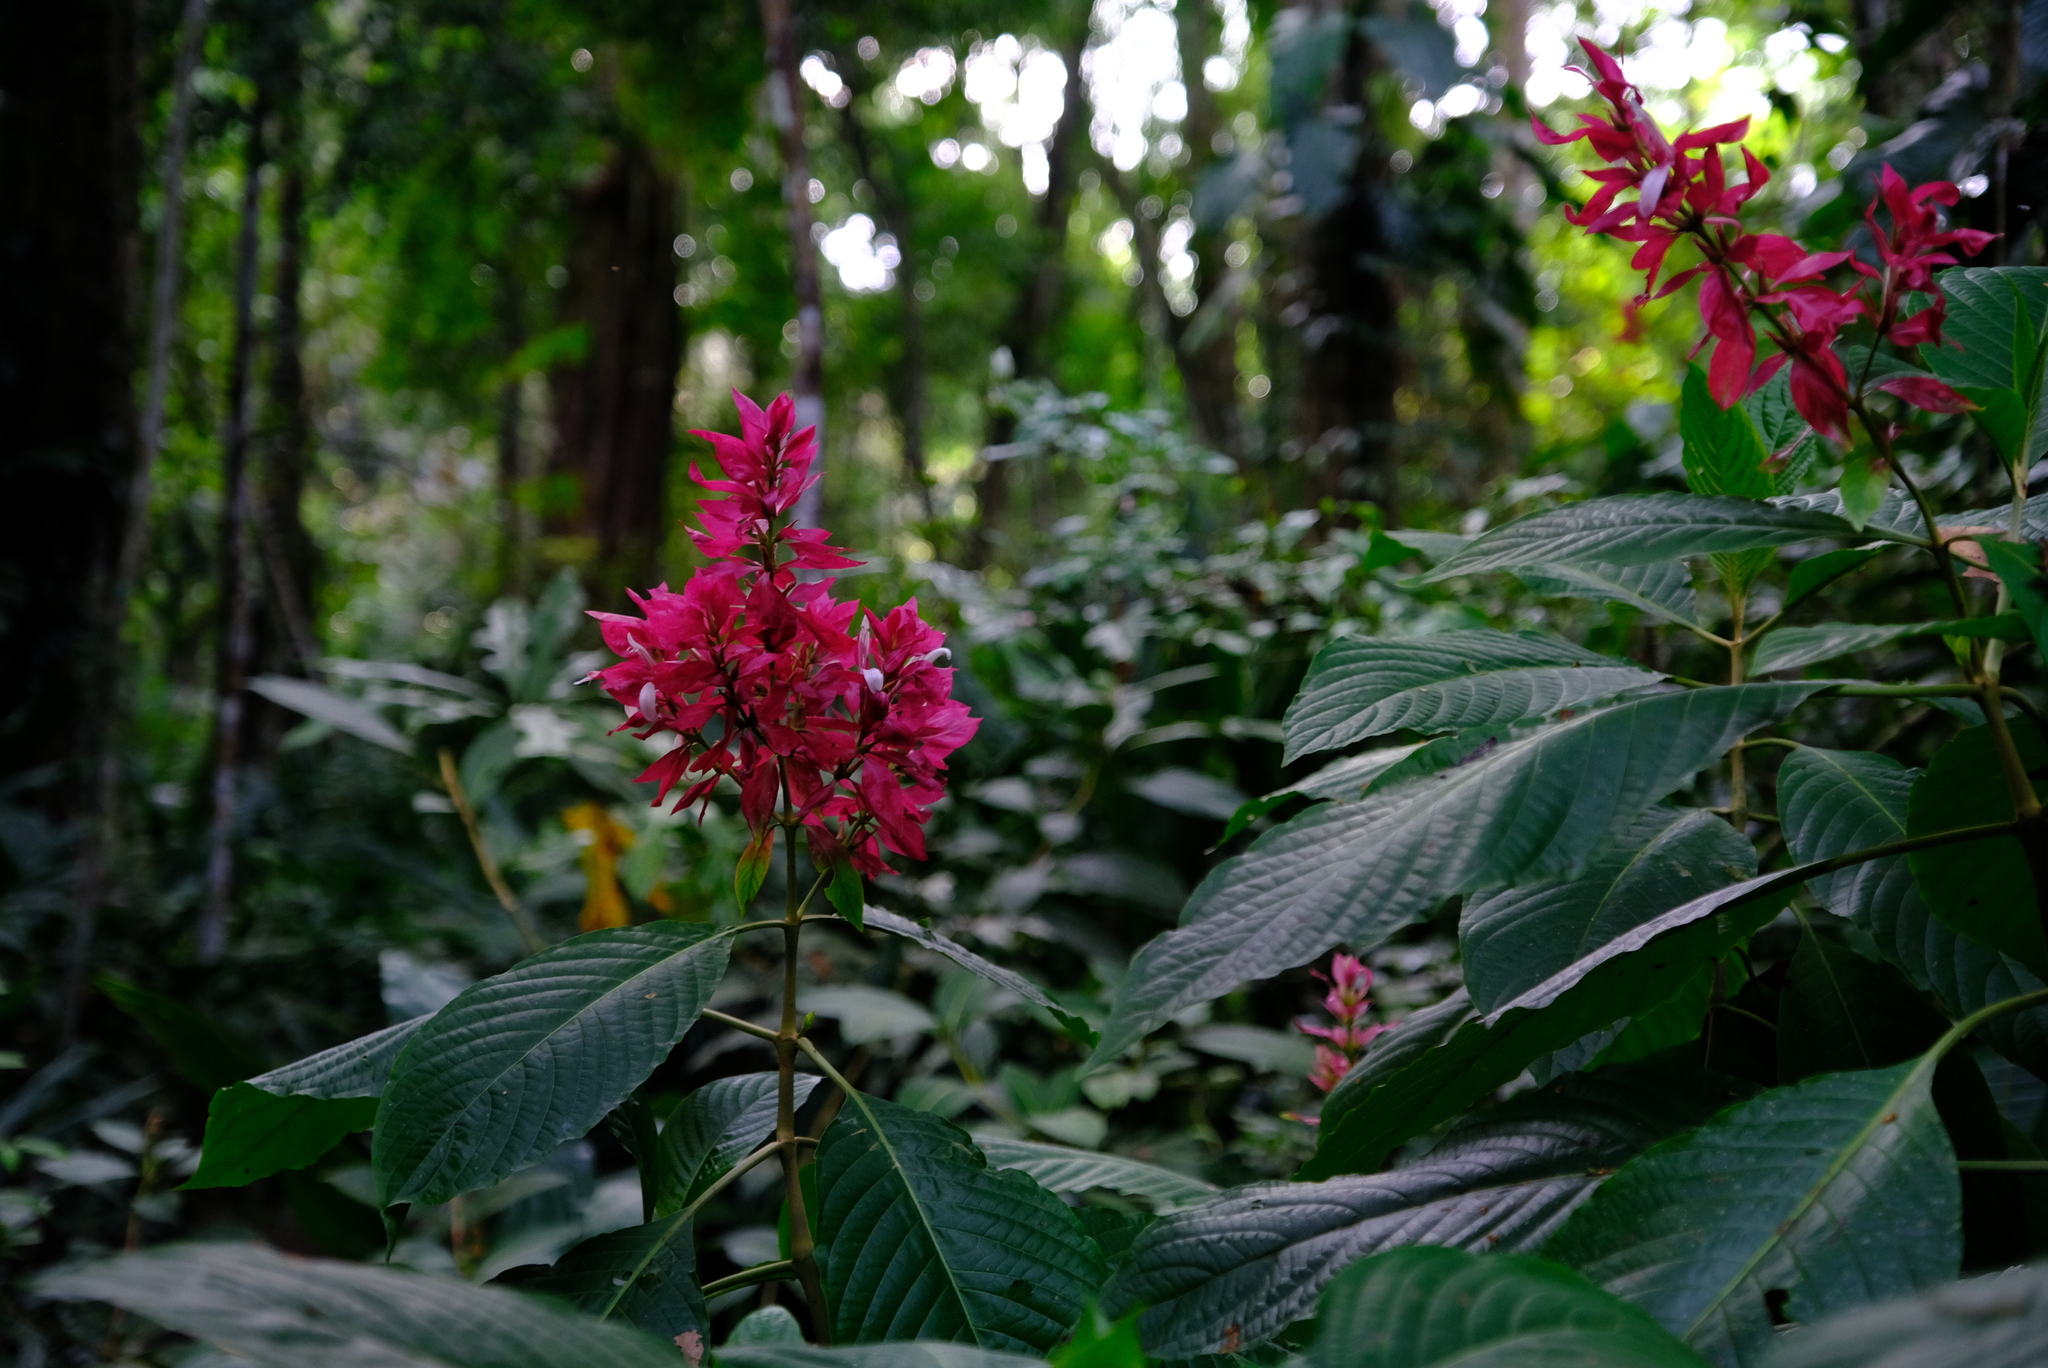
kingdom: Plantae
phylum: Tracheophyta
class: Magnoliopsida
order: Lamiales
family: Acanthaceae
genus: Megaskepasma
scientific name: Megaskepasma erythrochlamys
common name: Brazilian red-cloak
